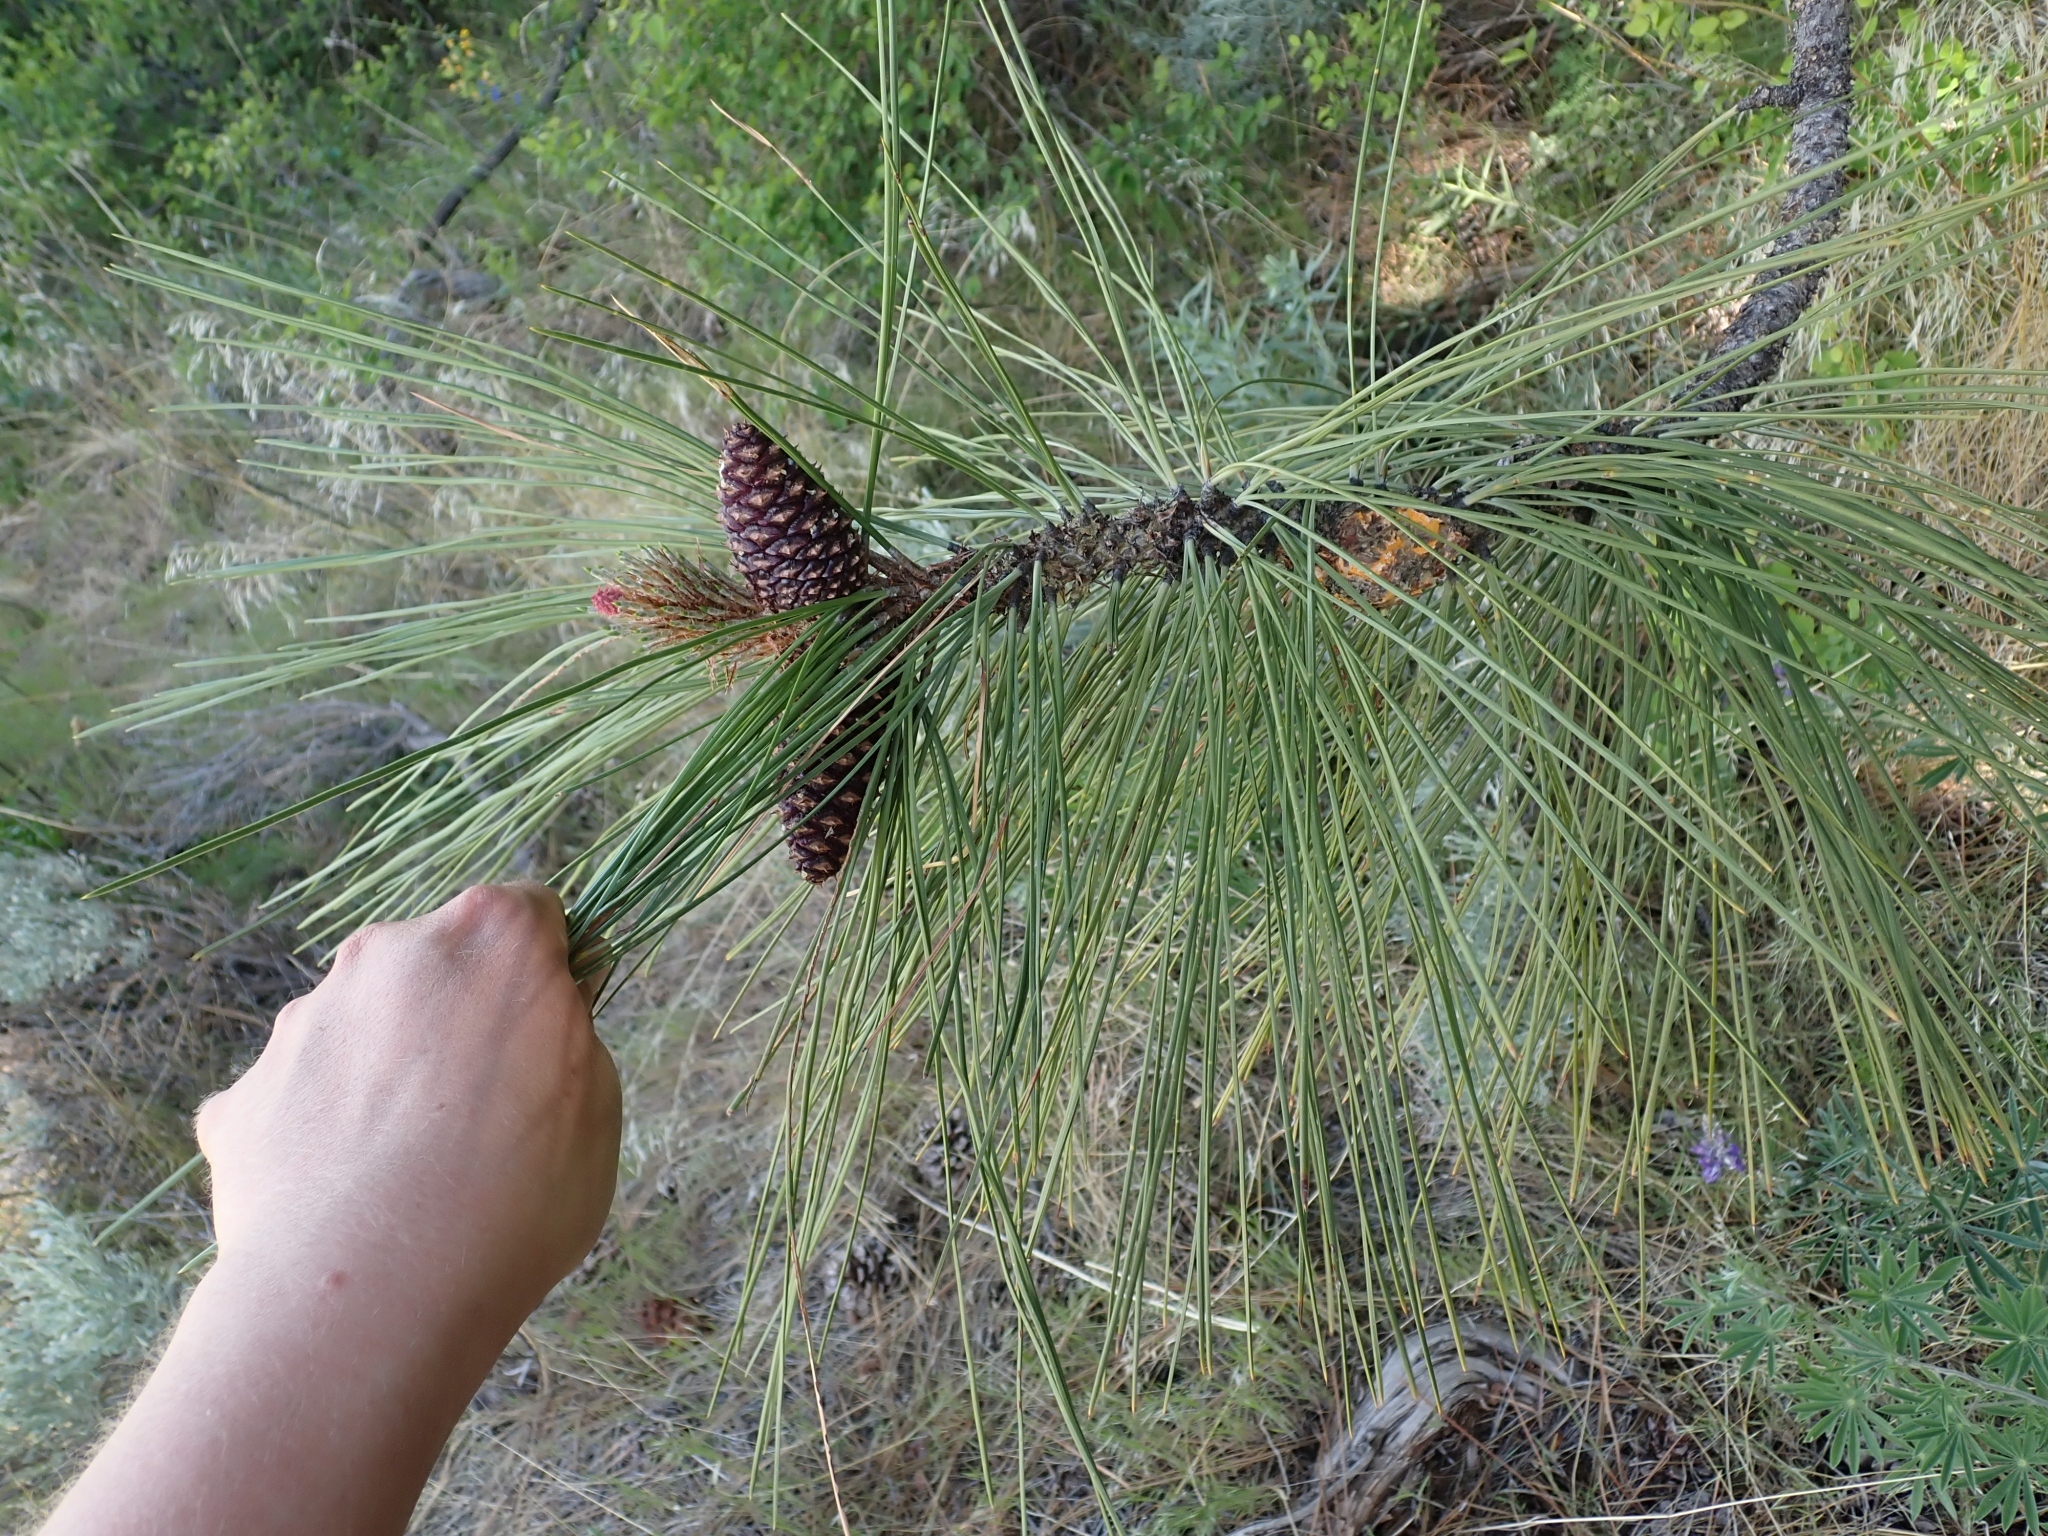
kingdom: Plantae
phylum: Tracheophyta
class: Pinopsida
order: Pinales
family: Pinaceae
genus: Pinus
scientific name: Pinus ponderosa
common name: Western yellow-pine
